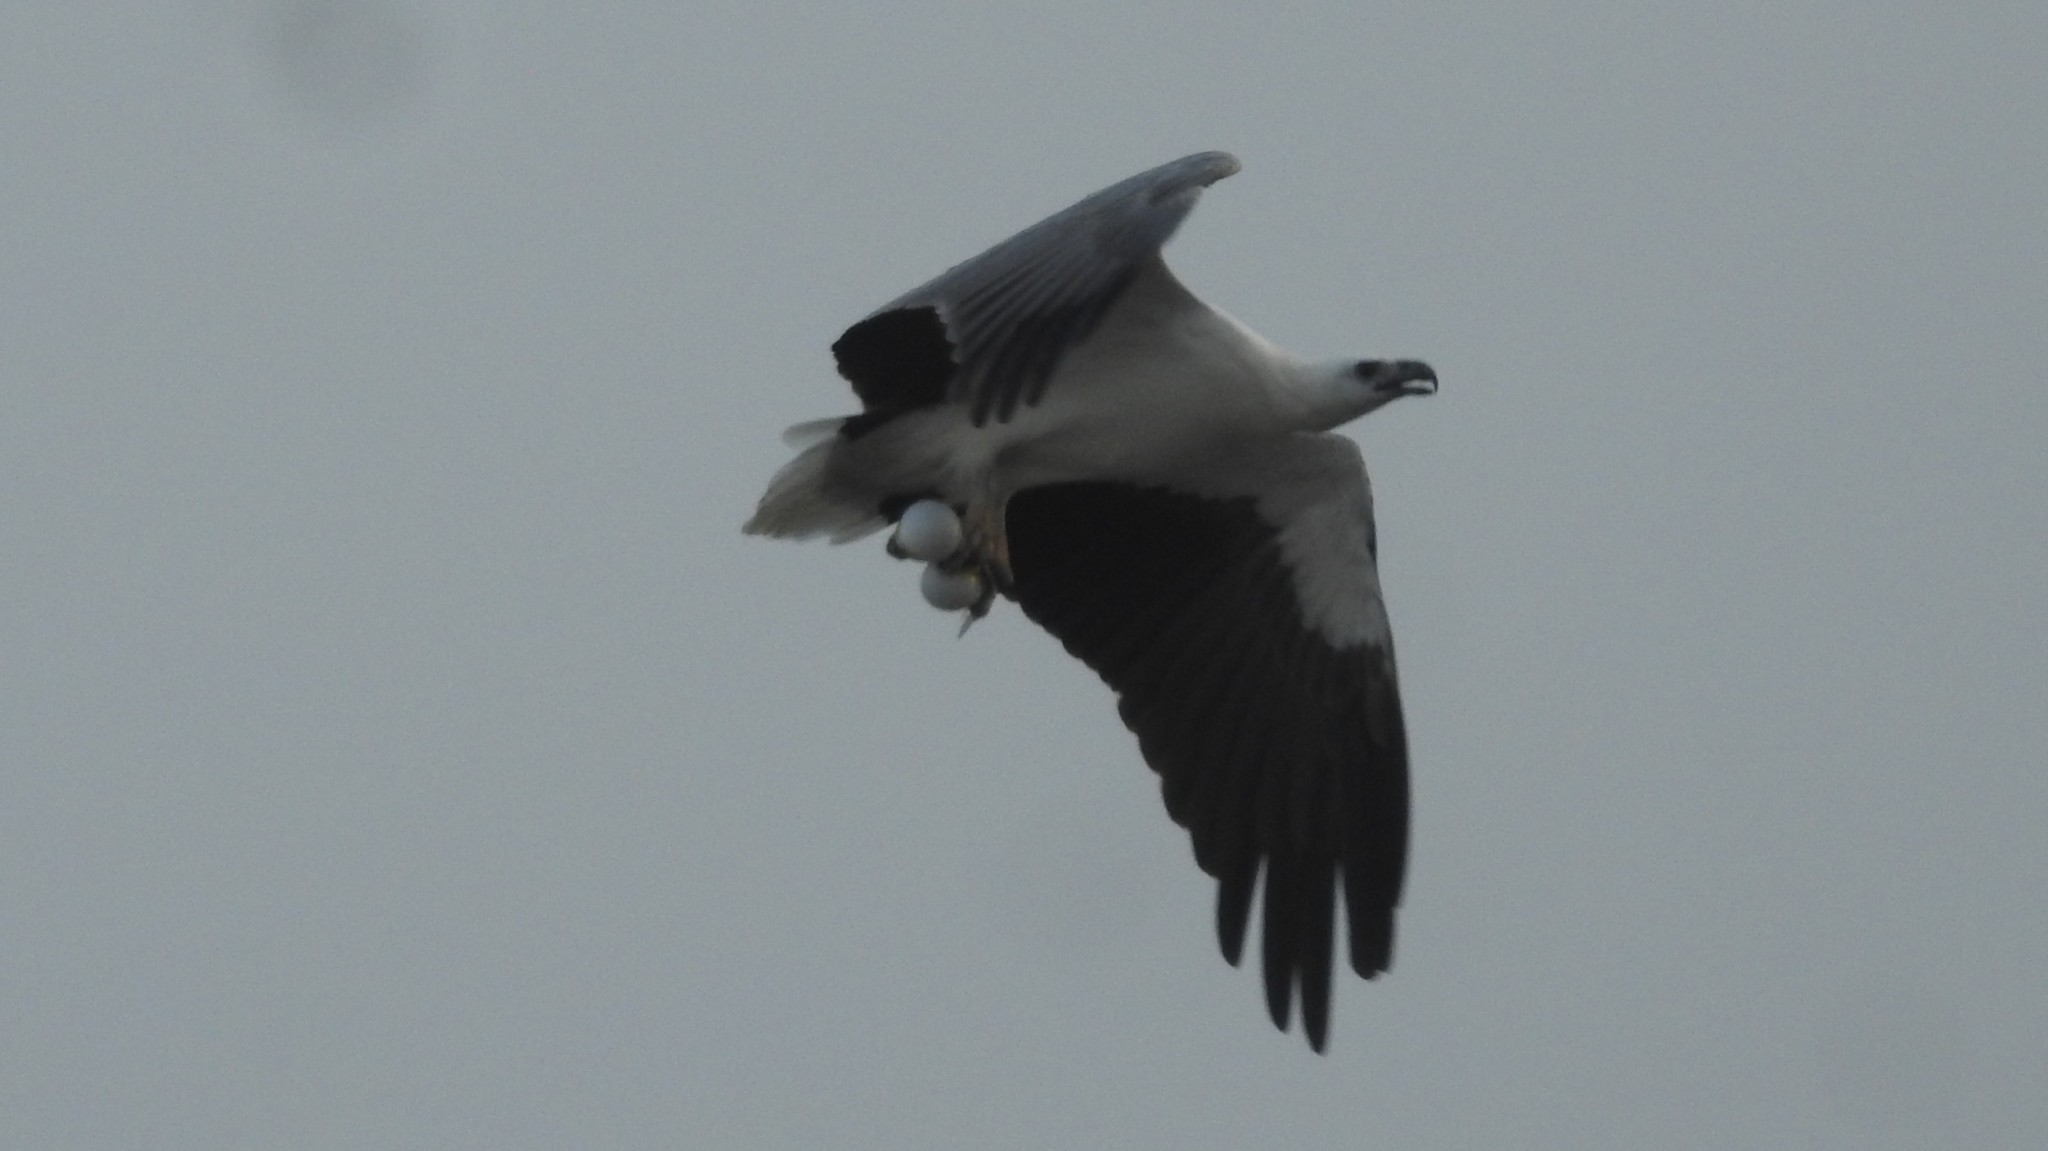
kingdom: Animalia
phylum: Chordata
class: Aves
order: Accipitriformes
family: Accipitridae
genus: Haliaeetus
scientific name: Haliaeetus leucogaster
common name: White-bellied sea eagle
